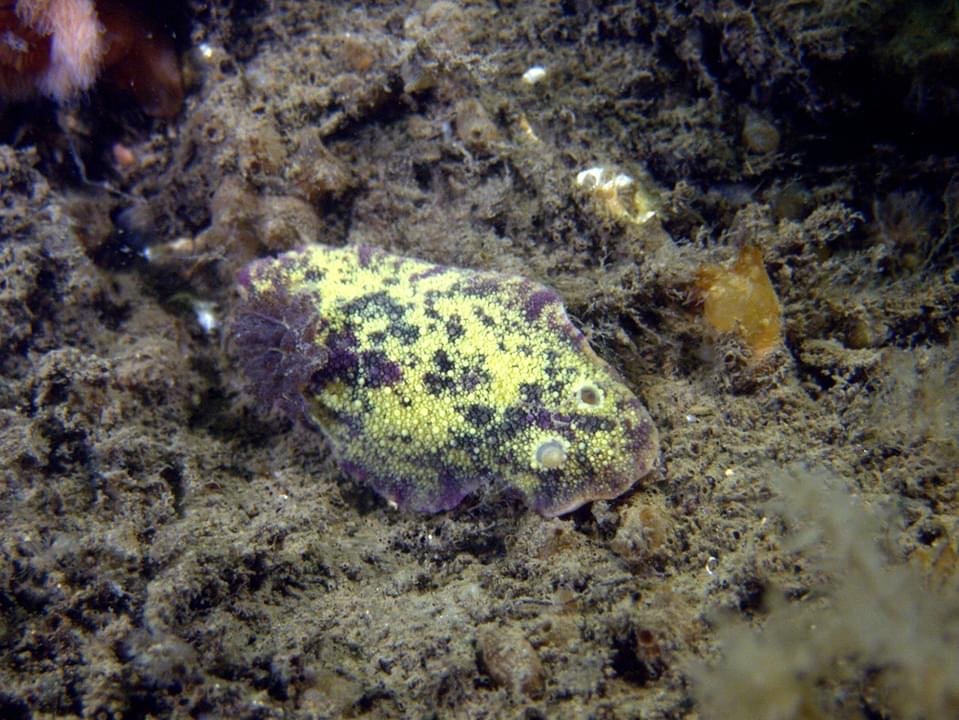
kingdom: Animalia
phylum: Mollusca
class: Gastropoda
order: Nudibranchia
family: Dorididae
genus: Doris
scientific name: Doris pseudoargus
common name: Sea lemon
